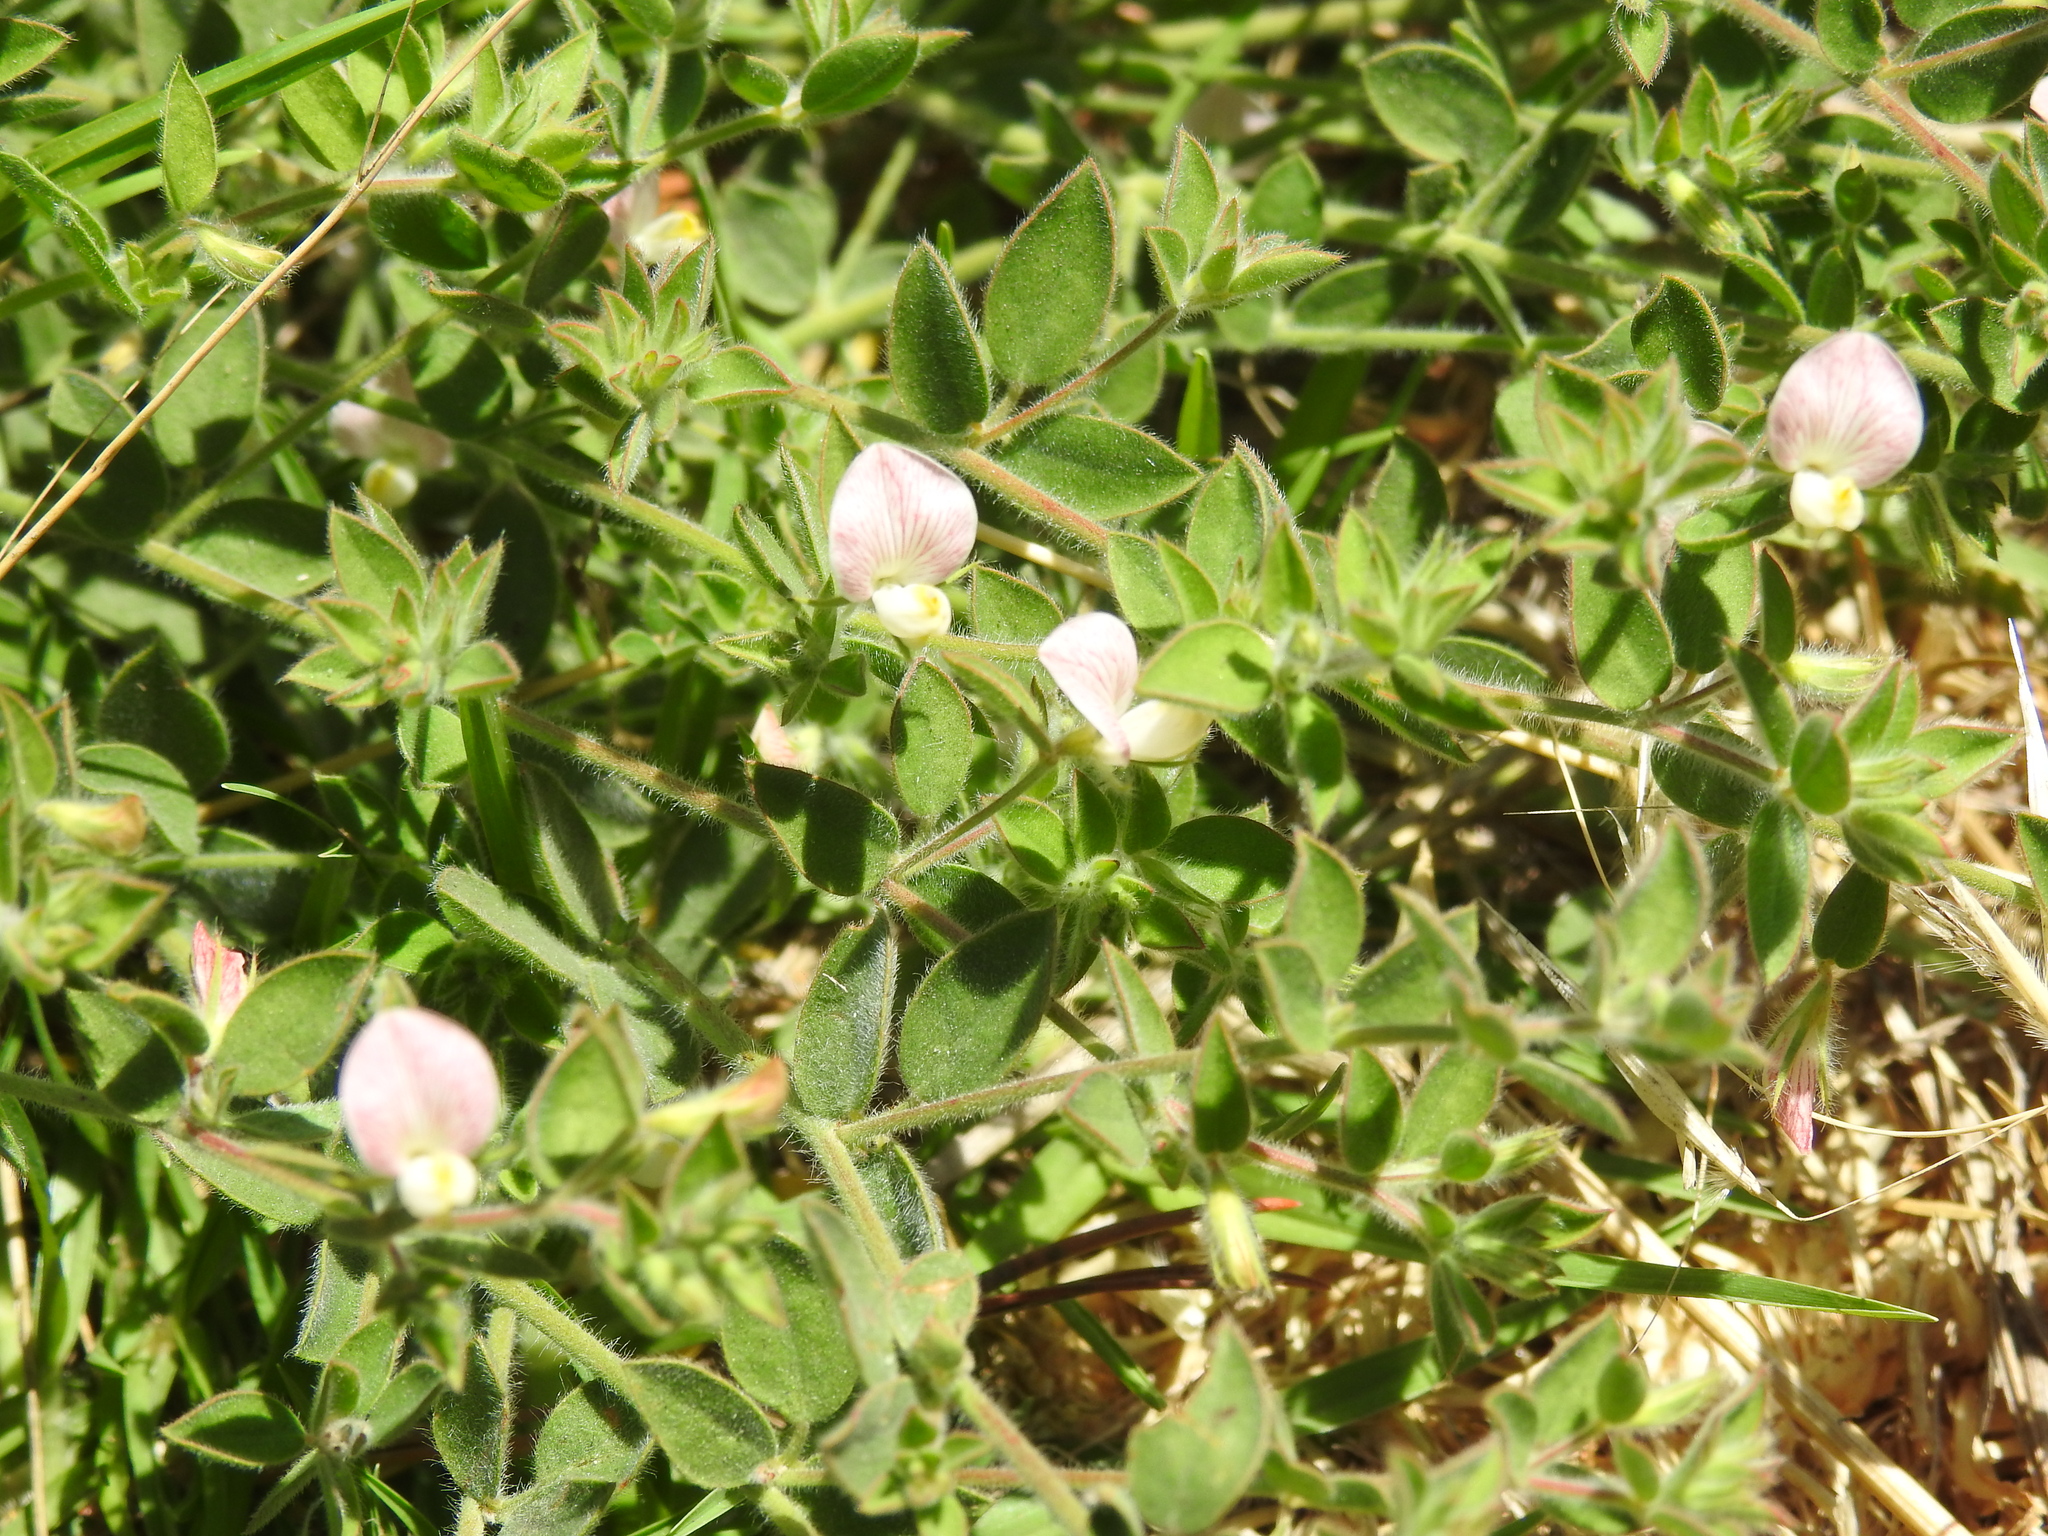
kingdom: Plantae
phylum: Tracheophyta
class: Magnoliopsida
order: Fabales
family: Fabaceae
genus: Acmispon
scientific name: Acmispon americanus
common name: American bird's-foot trefoil
